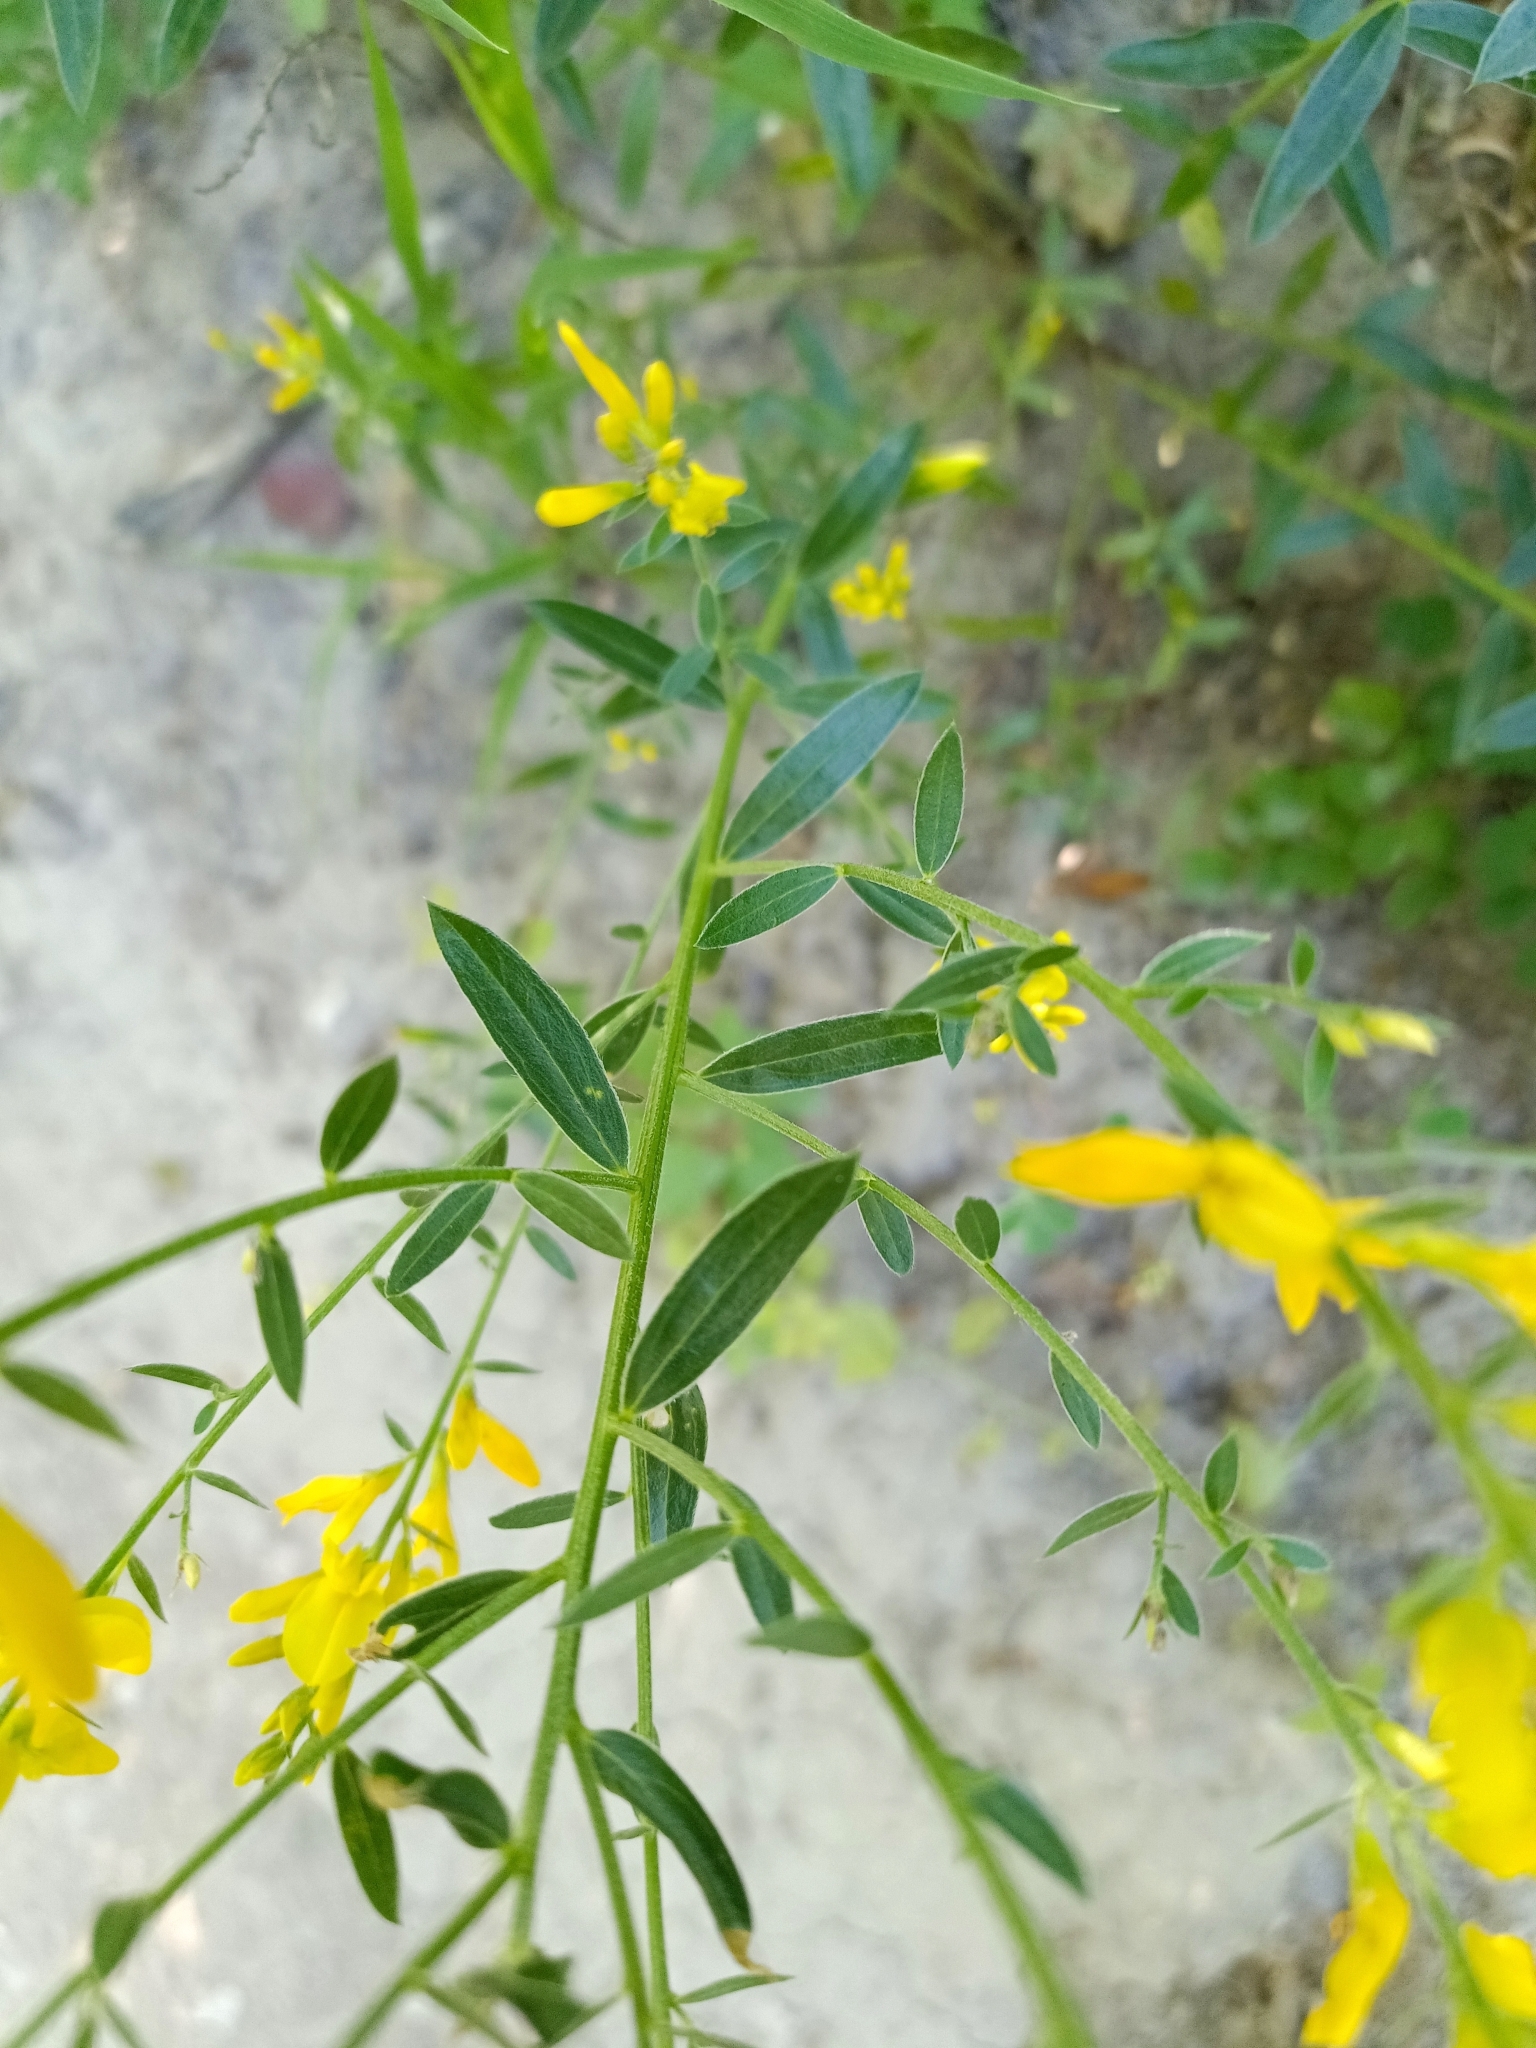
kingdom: Plantae
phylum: Tracheophyta
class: Magnoliopsida
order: Fabales
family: Fabaceae
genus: Genista
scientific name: Genista tinctoria
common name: Dyer's greenweed
